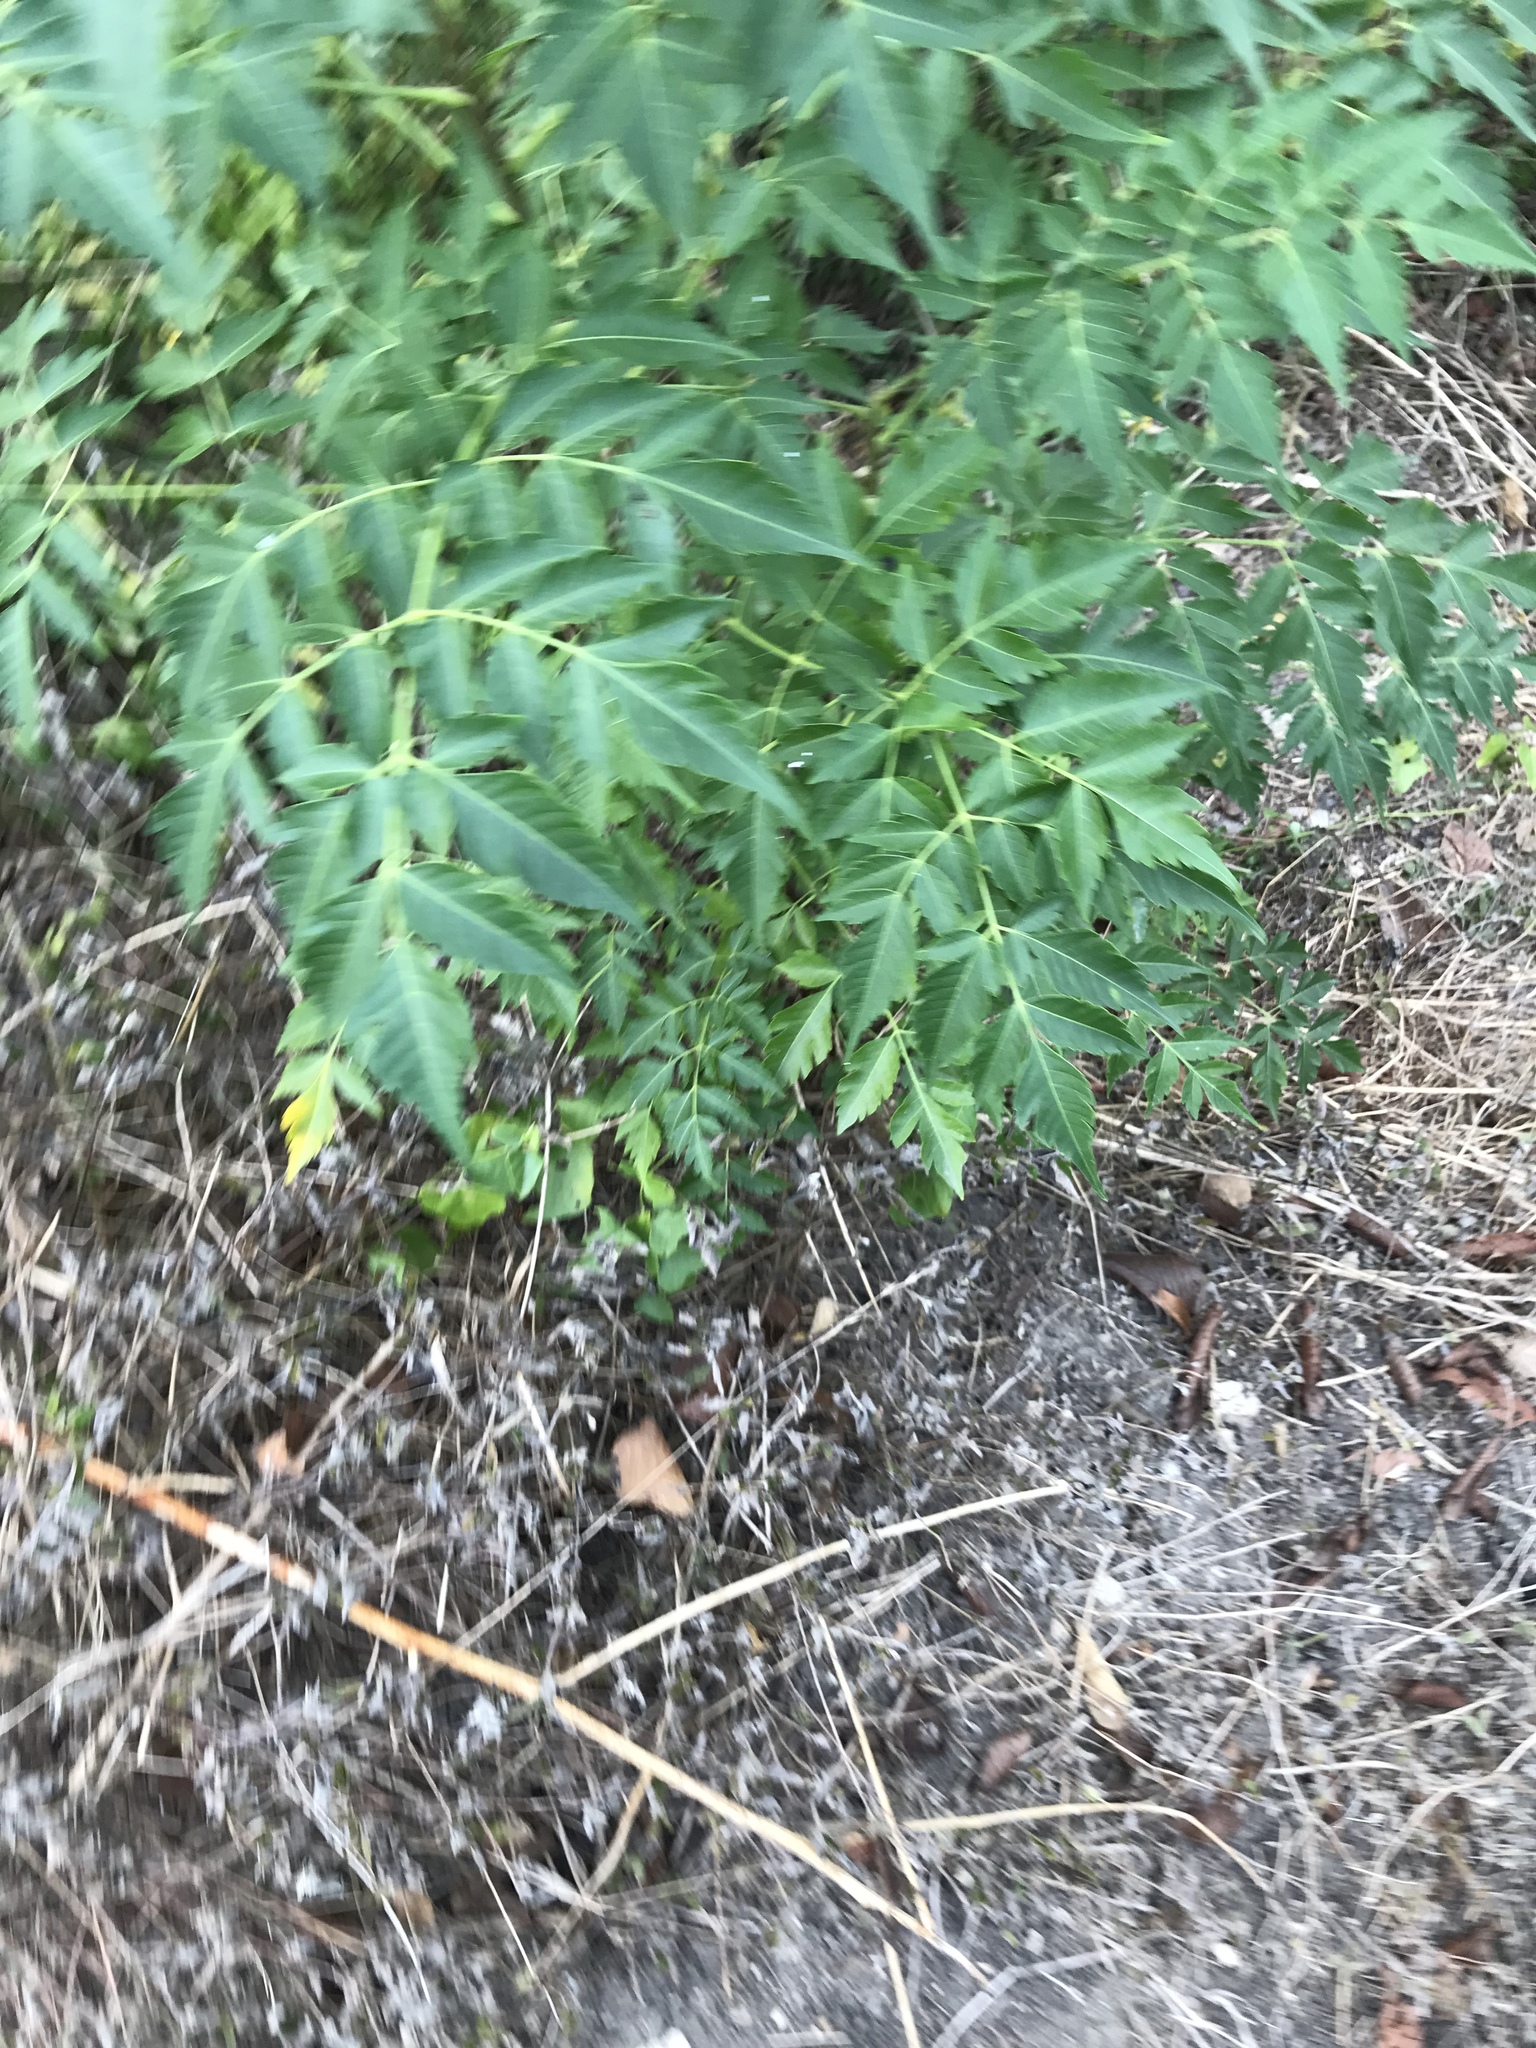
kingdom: Plantae
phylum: Tracheophyta
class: Magnoliopsida
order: Sapindales
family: Meliaceae
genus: Melia
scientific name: Melia azedarach
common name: Chinaberrytree
